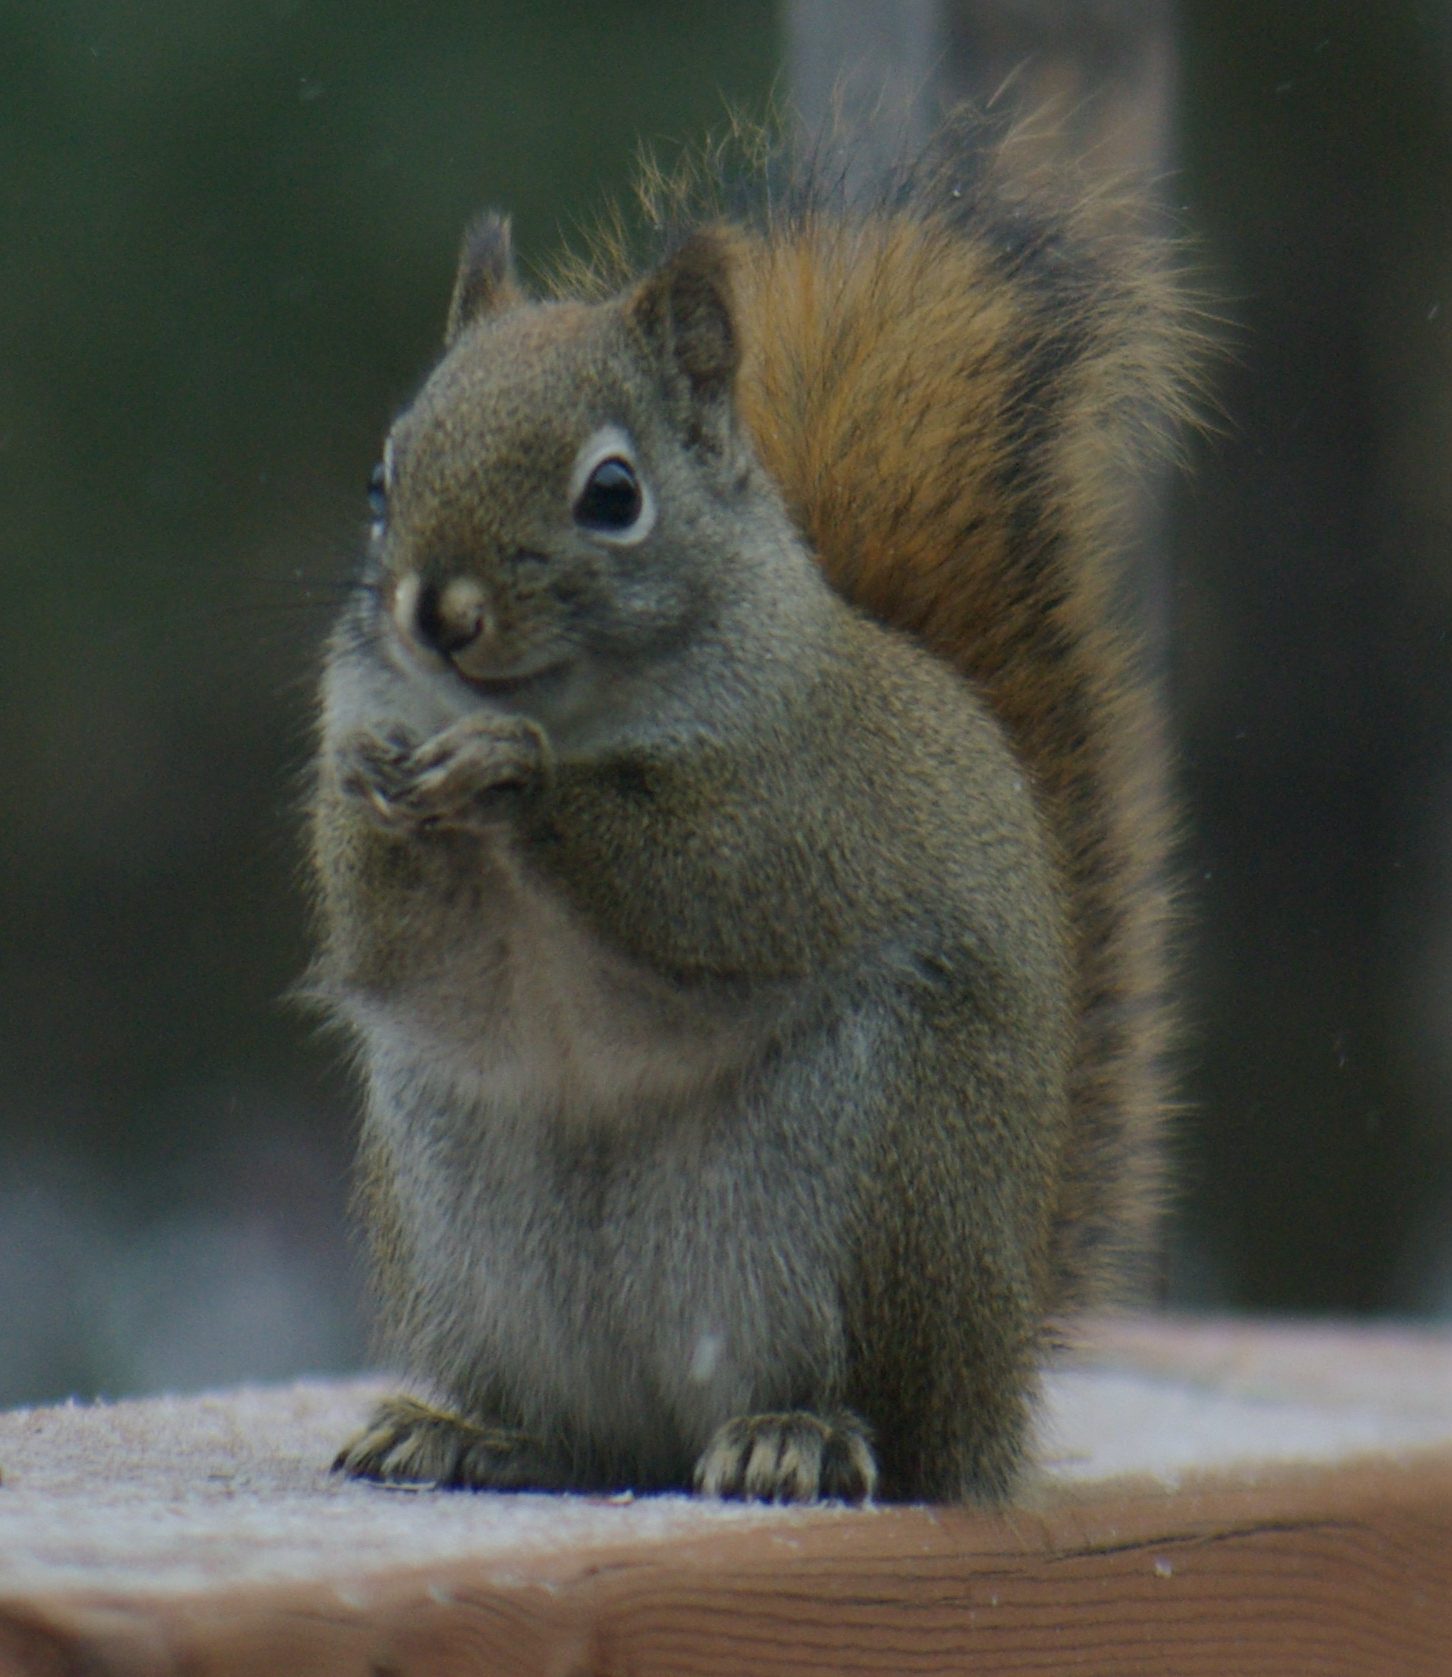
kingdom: Animalia
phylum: Chordata
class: Mammalia
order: Rodentia
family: Sciuridae
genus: Tamiasciurus
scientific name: Tamiasciurus hudsonicus
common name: Red squirrel
